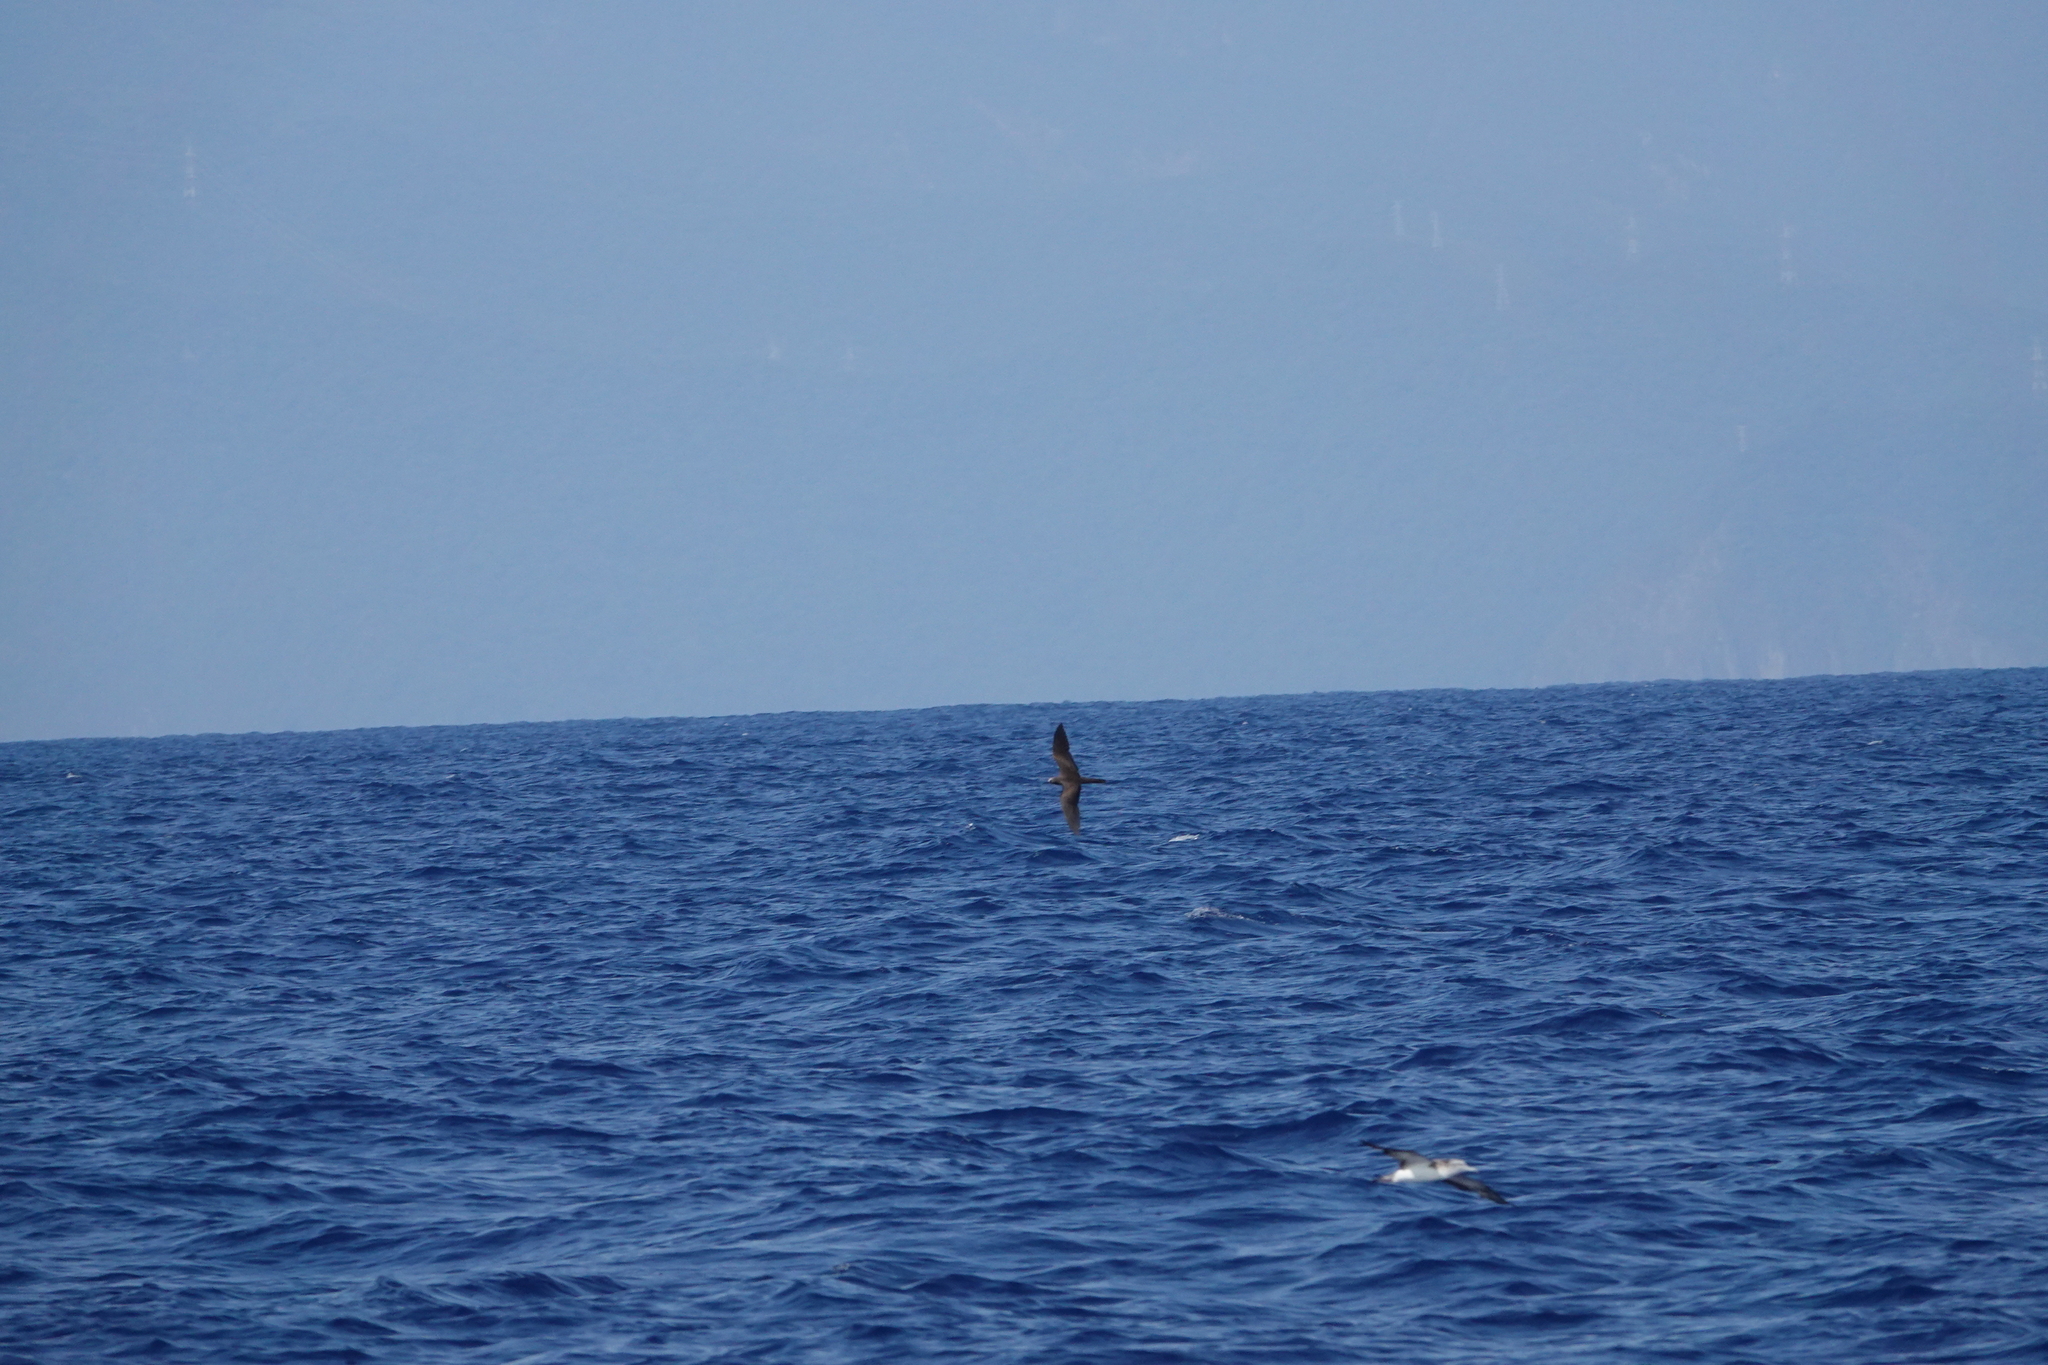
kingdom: Animalia
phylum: Chordata
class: Aves
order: Charadriiformes
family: Laridae
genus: Anous
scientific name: Anous stolidus
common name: Brown noddy
